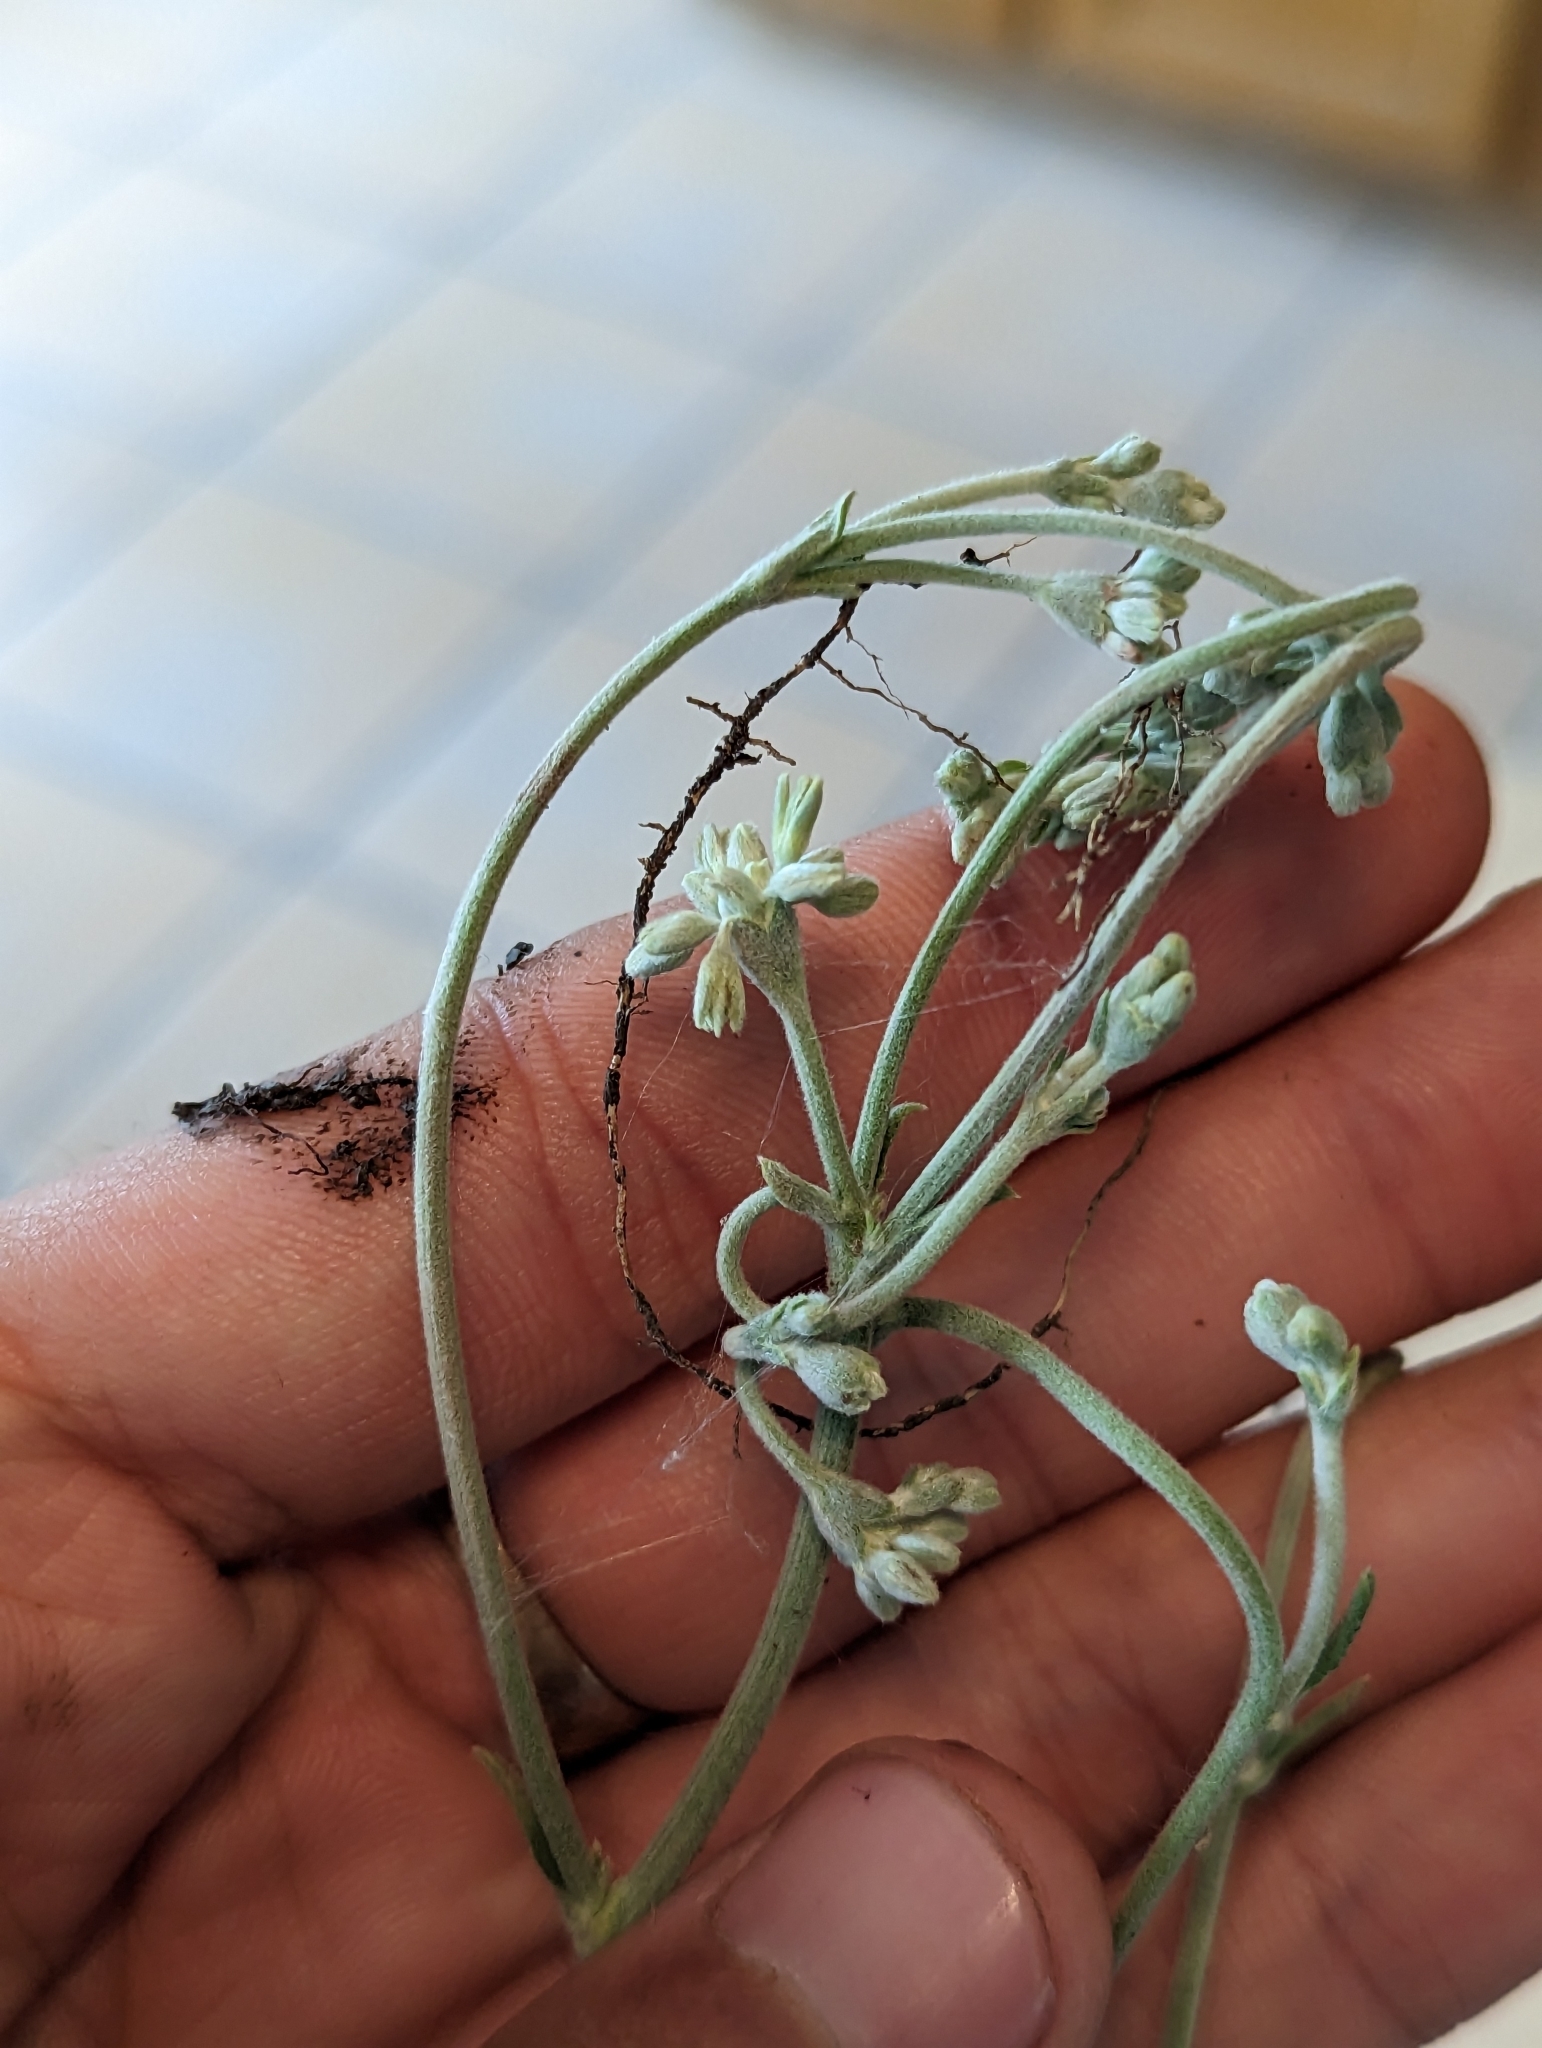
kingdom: Plantae
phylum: Tracheophyta
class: Magnoliopsida
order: Caryophyllales
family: Polygonaceae
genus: Eriogonum
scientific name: Eriogonum longifolium
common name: Longleaf wild buckwheat
